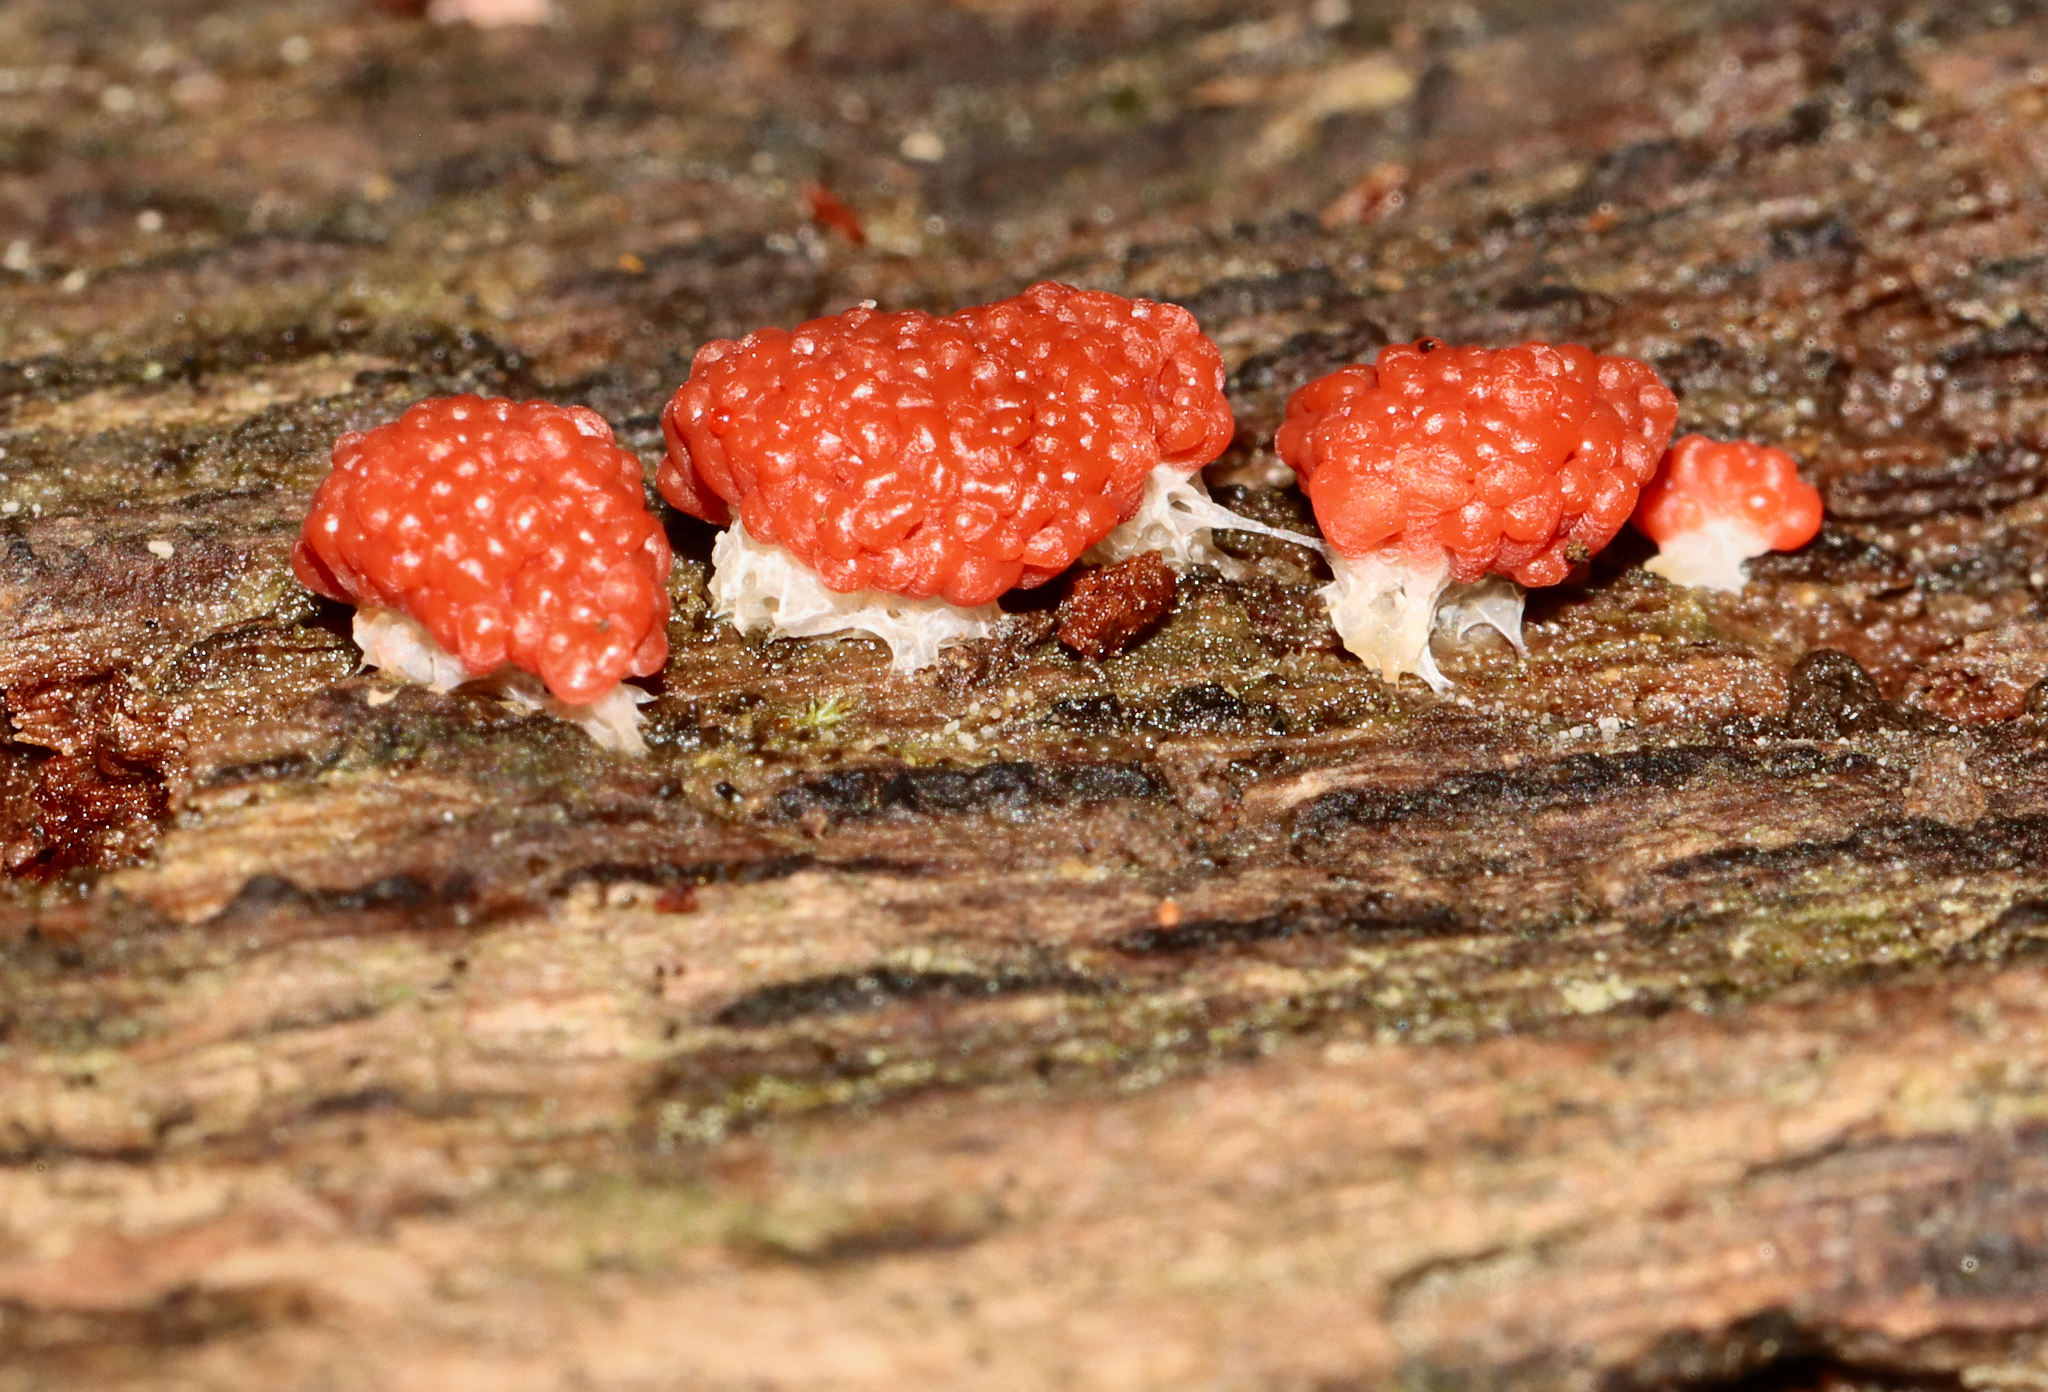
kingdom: Protozoa
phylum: Mycetozoa
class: Myxomycetes
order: Cribrariales
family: Tubiferaceae
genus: Tubifera
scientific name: Tubifera ferruginosa
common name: Red raspberry slime mold
